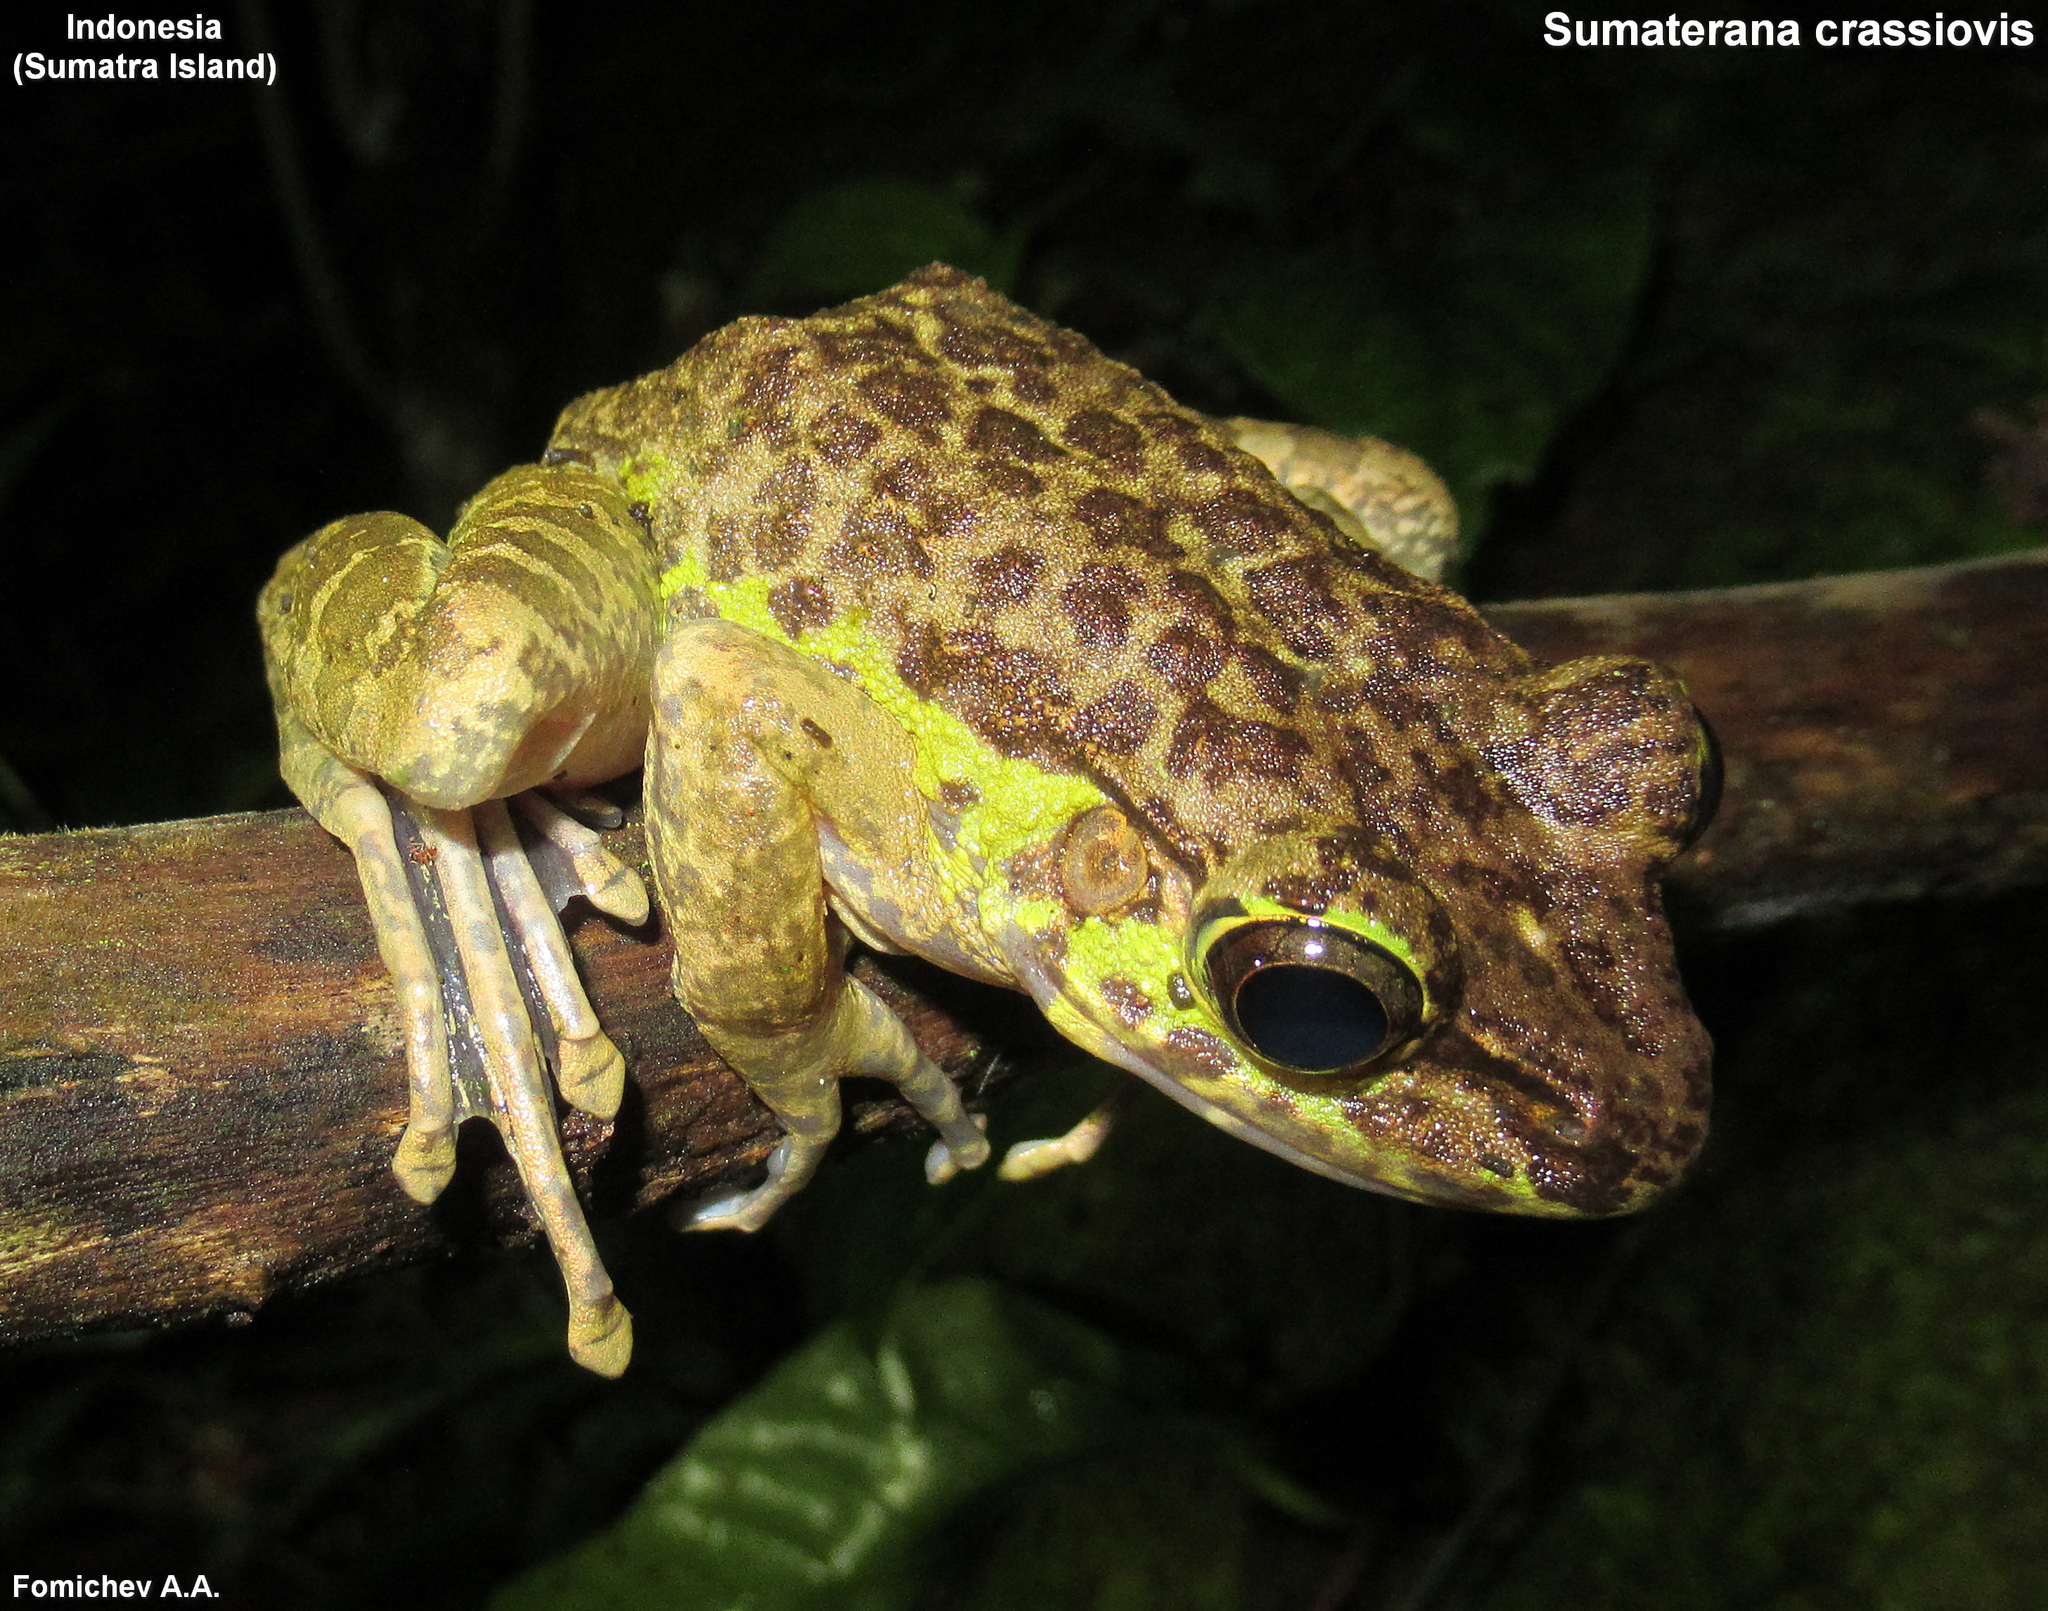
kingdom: Animalia
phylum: Chordata
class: Amphibia
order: Anura
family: Ranidae
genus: Sumaterana
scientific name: Sumaterana crassiovis
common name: Korinchi frog
